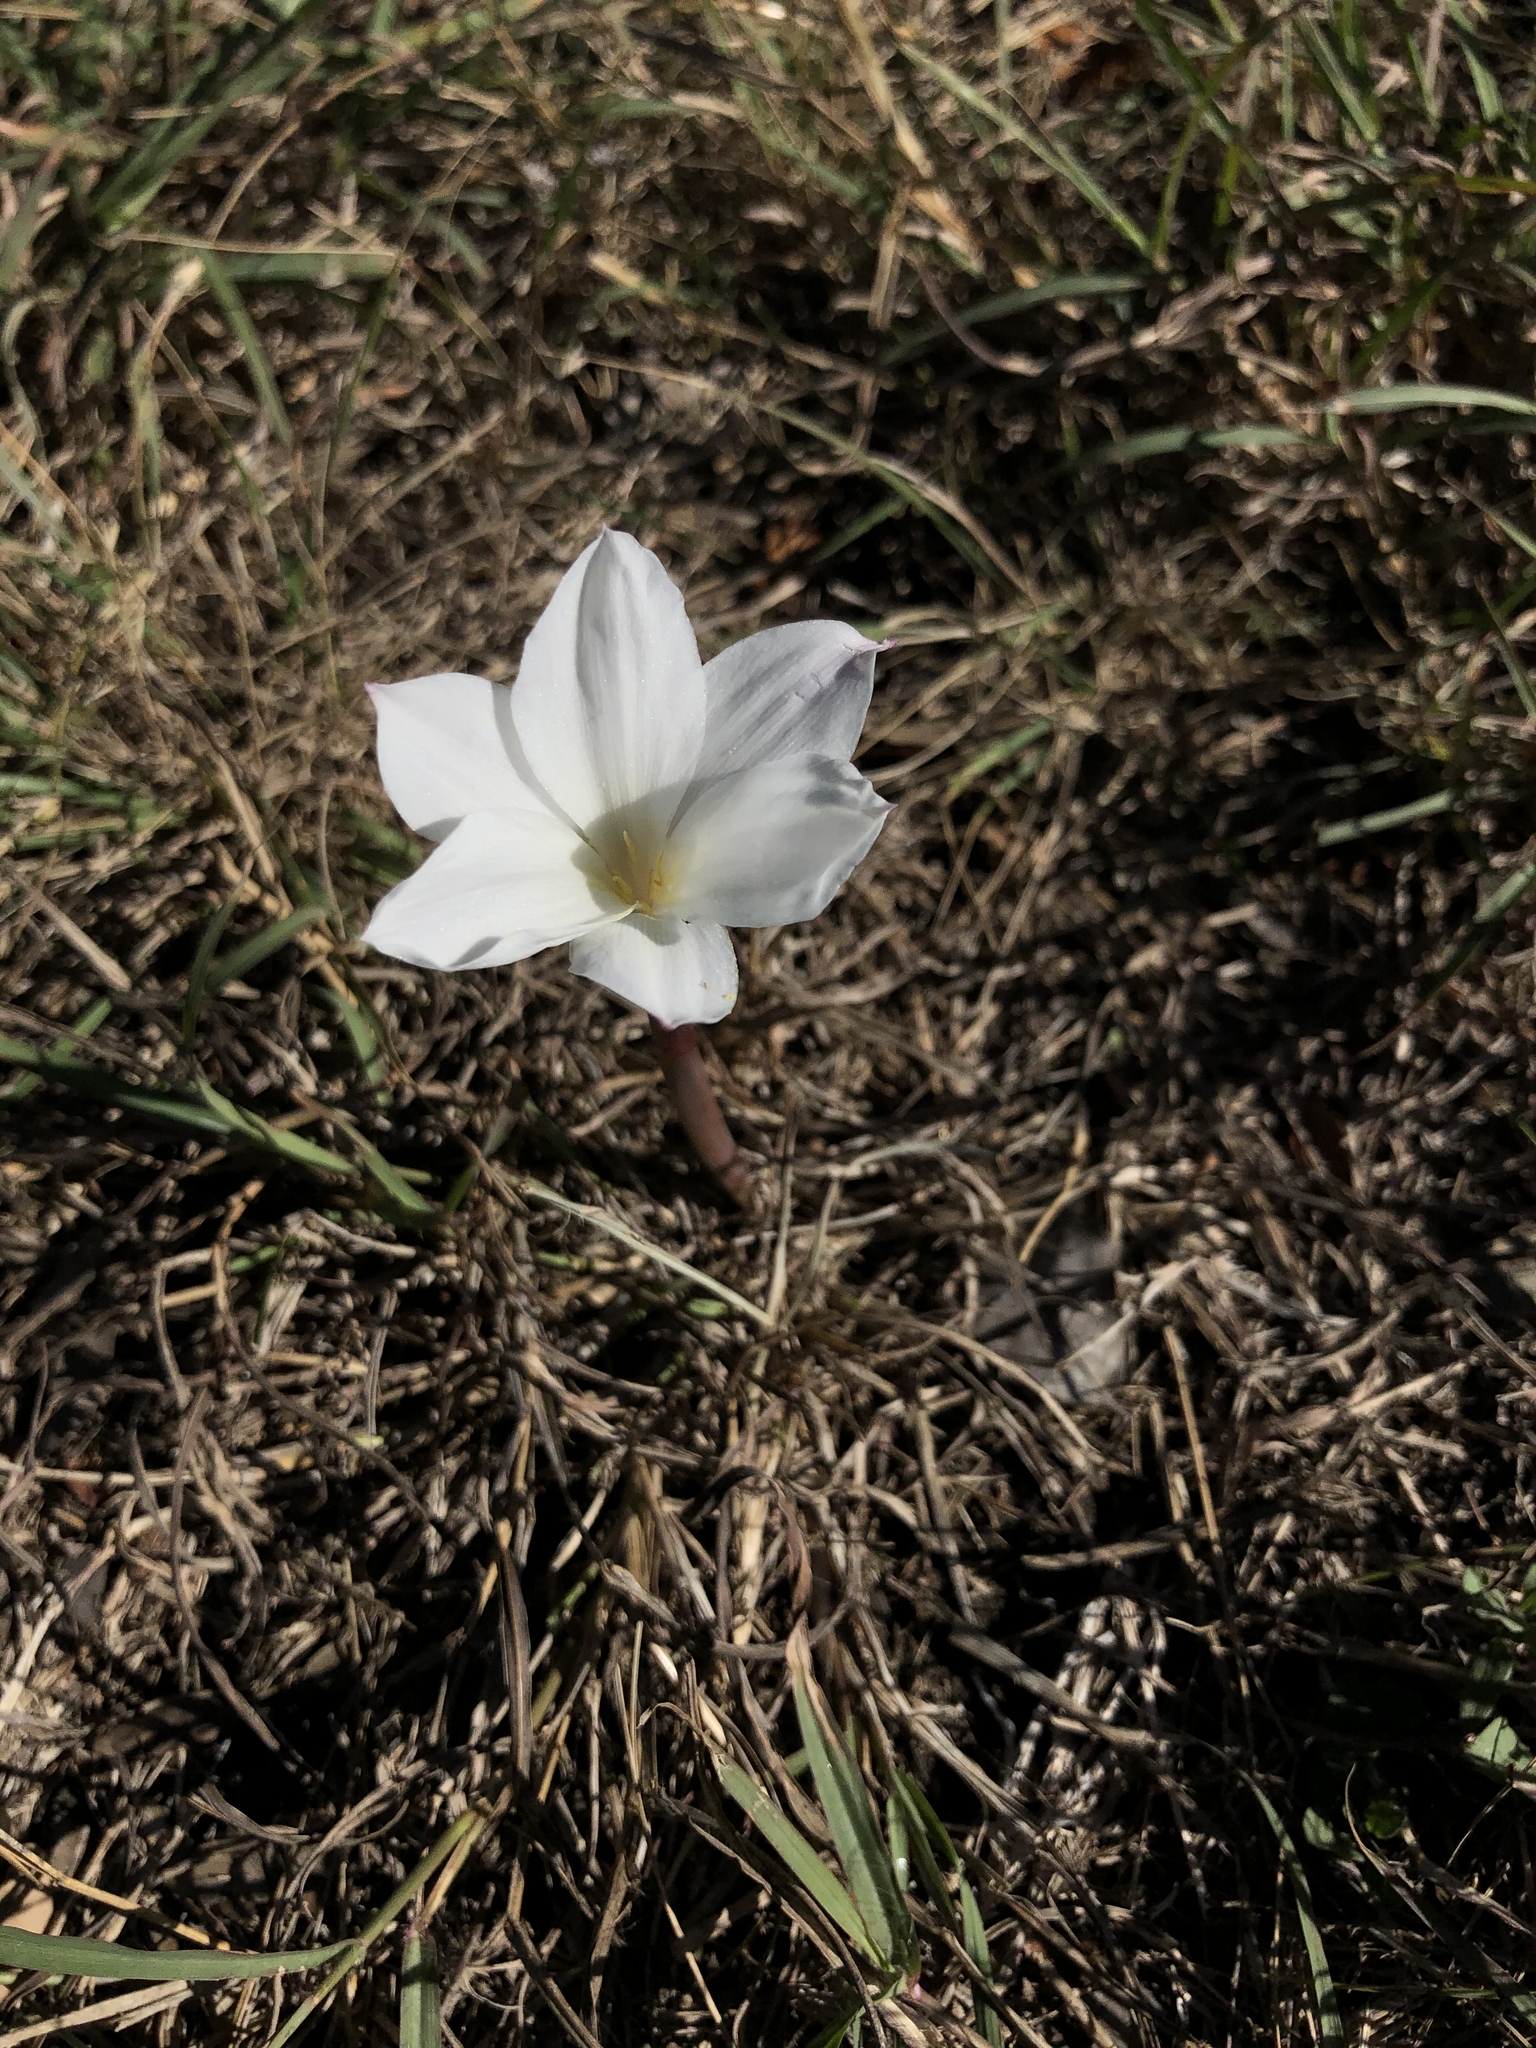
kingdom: Plantae
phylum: Tracheophyta
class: Liliopsida
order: Asparagales
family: Amaryllidaceae
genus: Zephyranthes
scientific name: Zephyranthes drummondii
